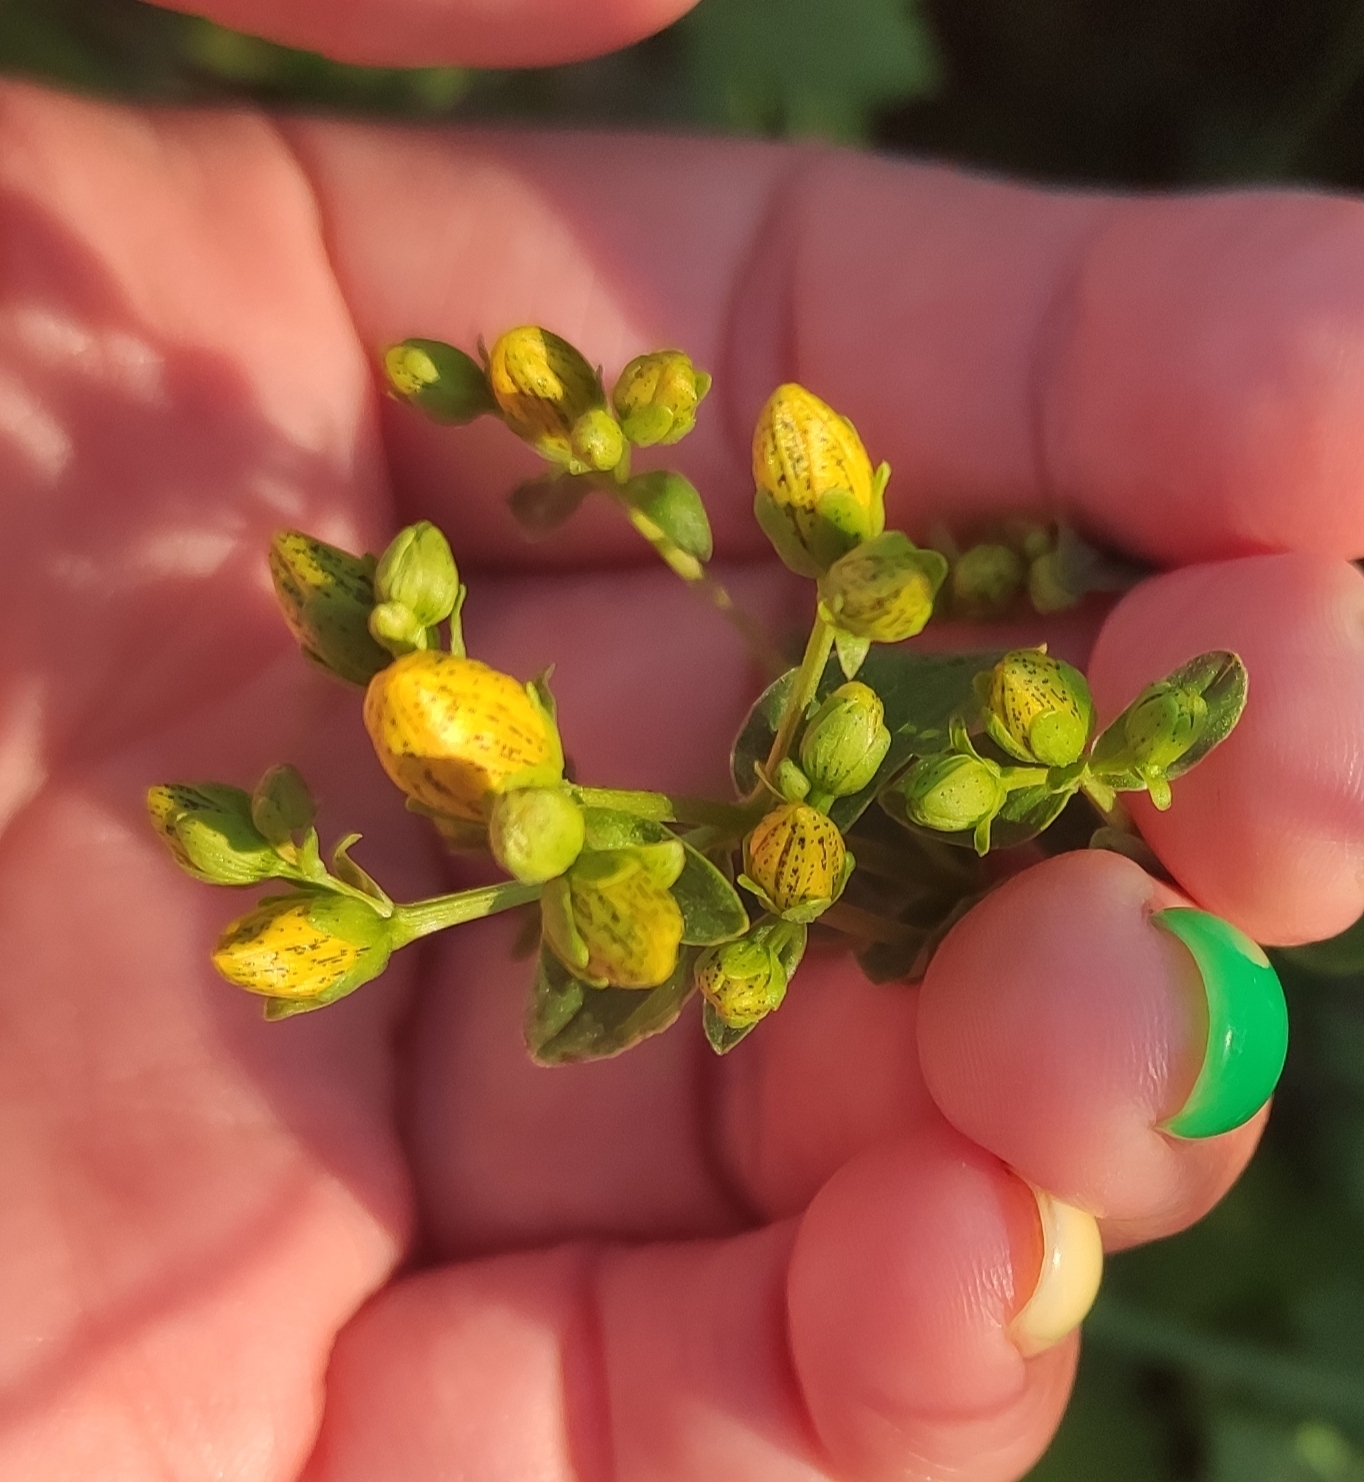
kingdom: Plantae
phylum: Tracheophyta
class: Magnoliopsida
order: Malpighiales
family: Hypericaceae
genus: Hypericum
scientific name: Hypericum maculatum
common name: Imperforate st. john's-wort
